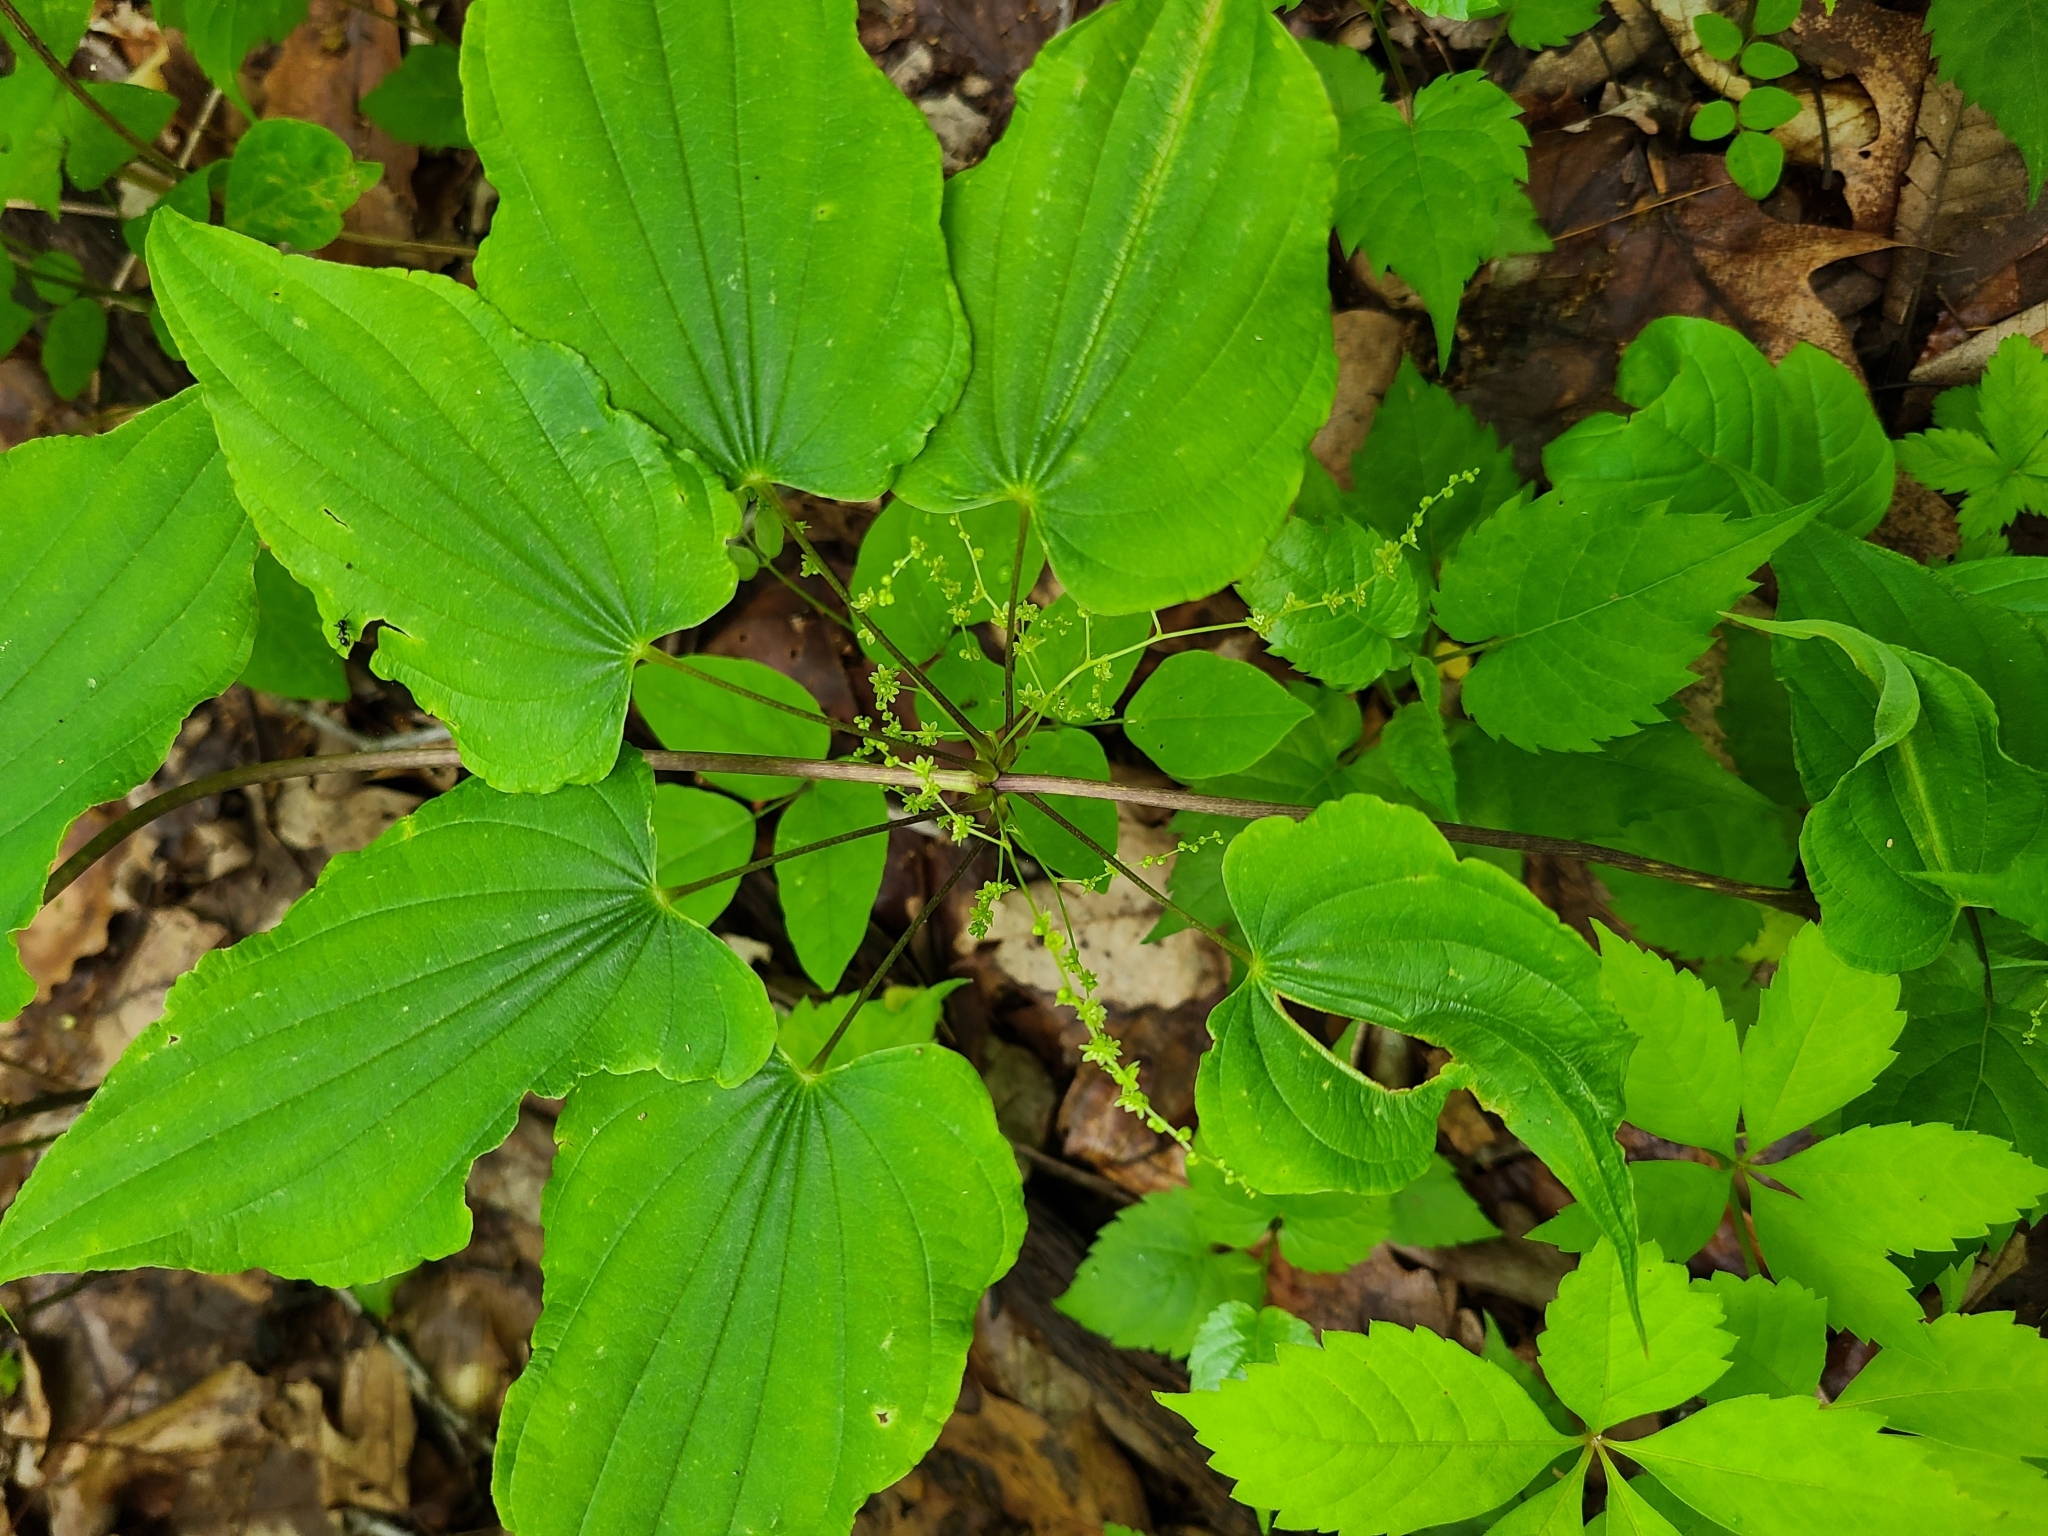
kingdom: Plantae
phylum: Tracheophyta
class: Liliopsida
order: Dioscoreales
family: Dioscoreaceae
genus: Dioscorea
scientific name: Dioscorea villosa
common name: Wild yam
